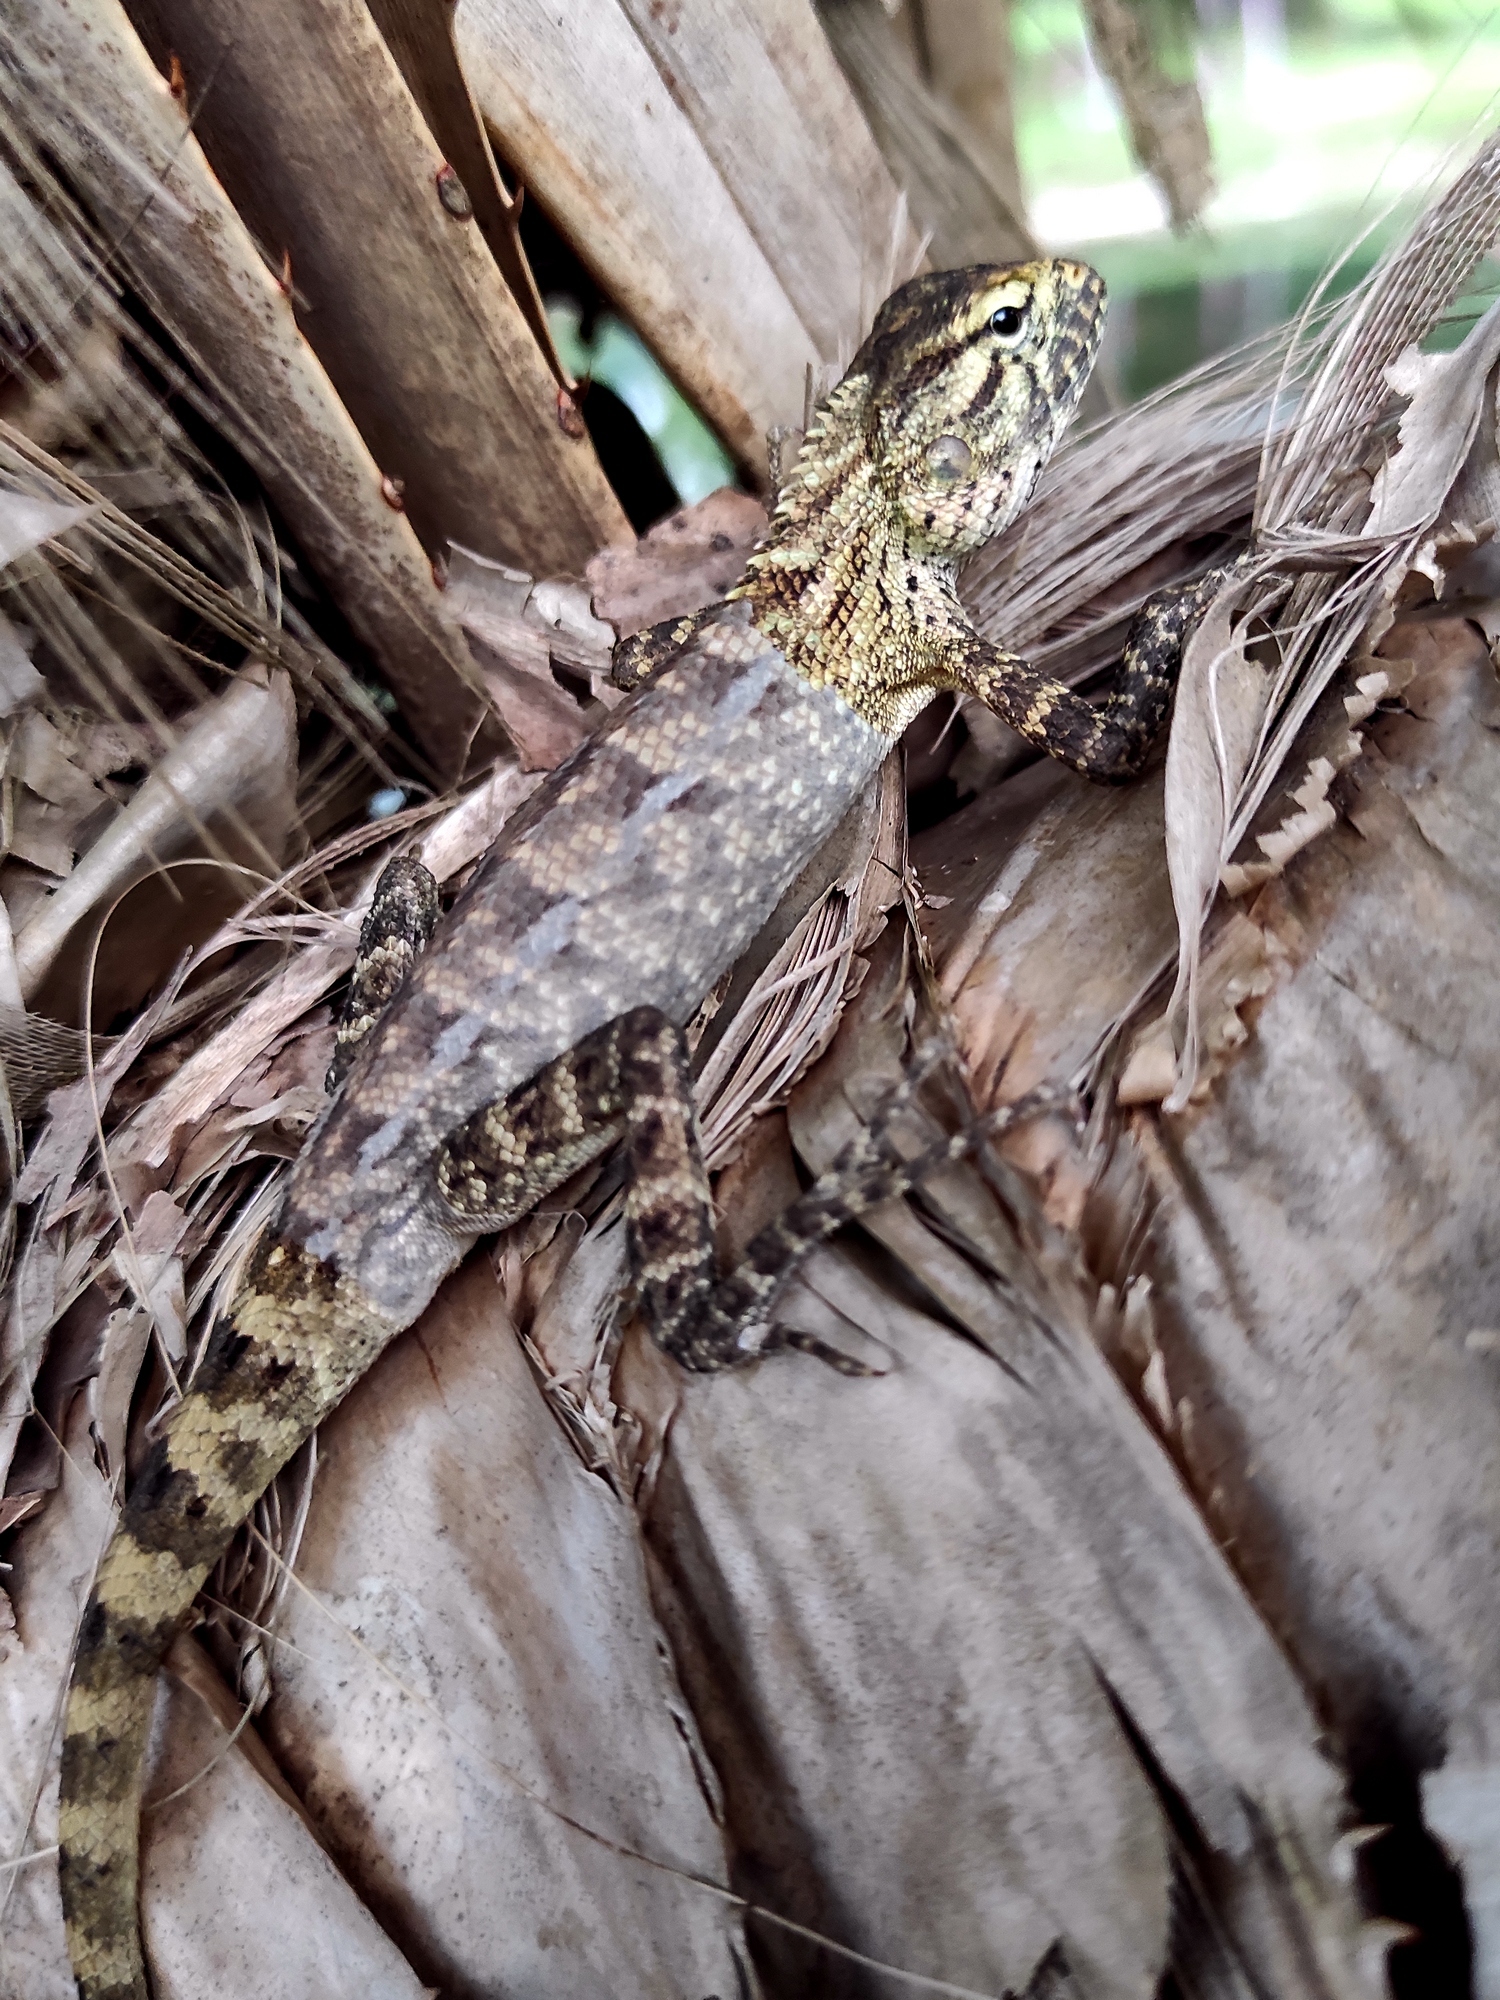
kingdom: Animalia
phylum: Chordata
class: Squamata
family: Agamidae
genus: Calotes
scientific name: Calotes versicolor
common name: Oriental garden lizard
